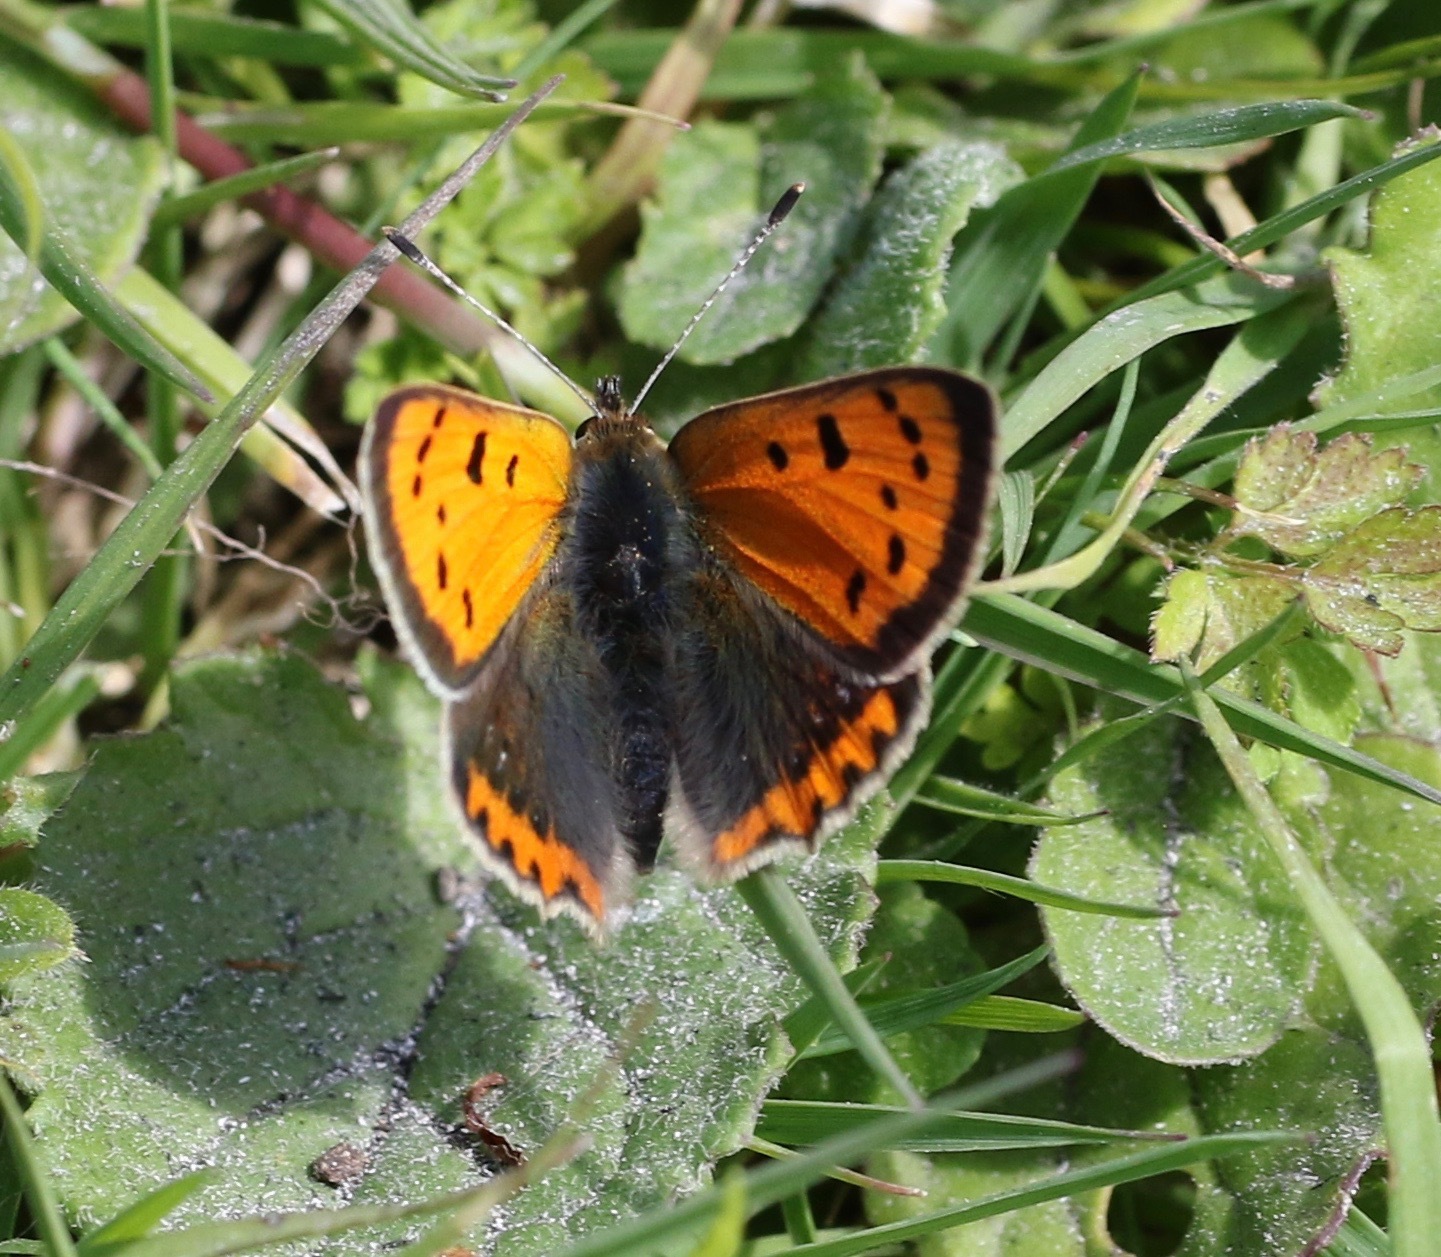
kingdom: Animalia
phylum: Arthropoda
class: Insecta
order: Lepidoptera
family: Lycaenidae
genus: Lycaena
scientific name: Lycaena phlaeas
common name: Small copper
